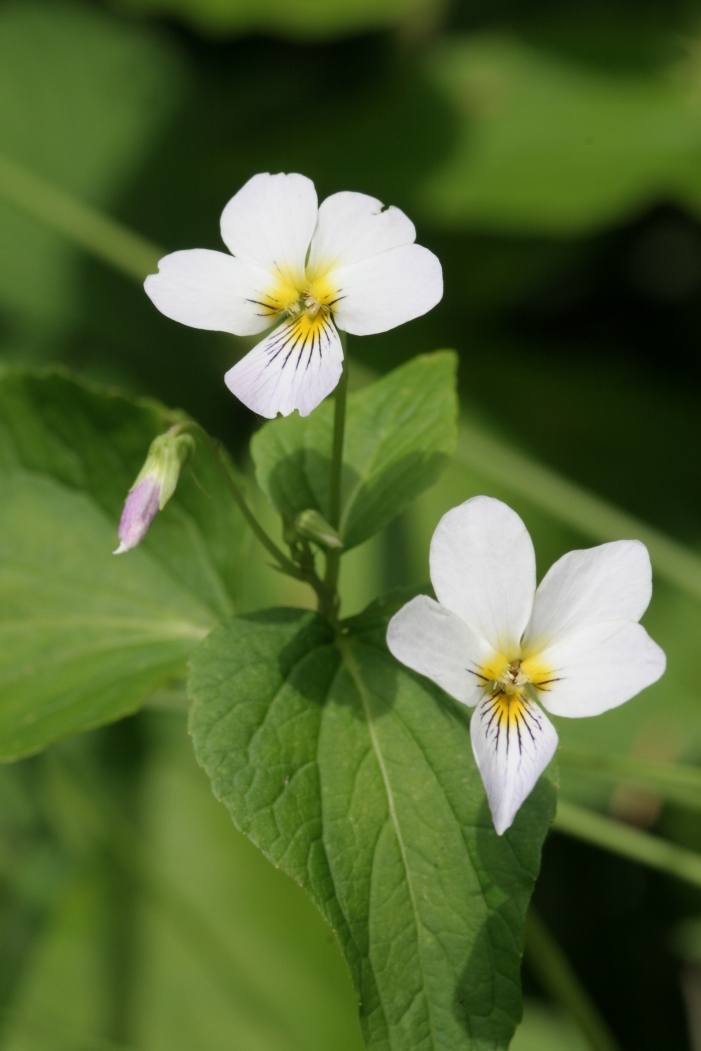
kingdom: Plantae
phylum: Tracheophyta
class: Magnoliopsida
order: Malpighiales
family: Violaceae
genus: Viola
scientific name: Viola canadensis
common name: Canada violet
